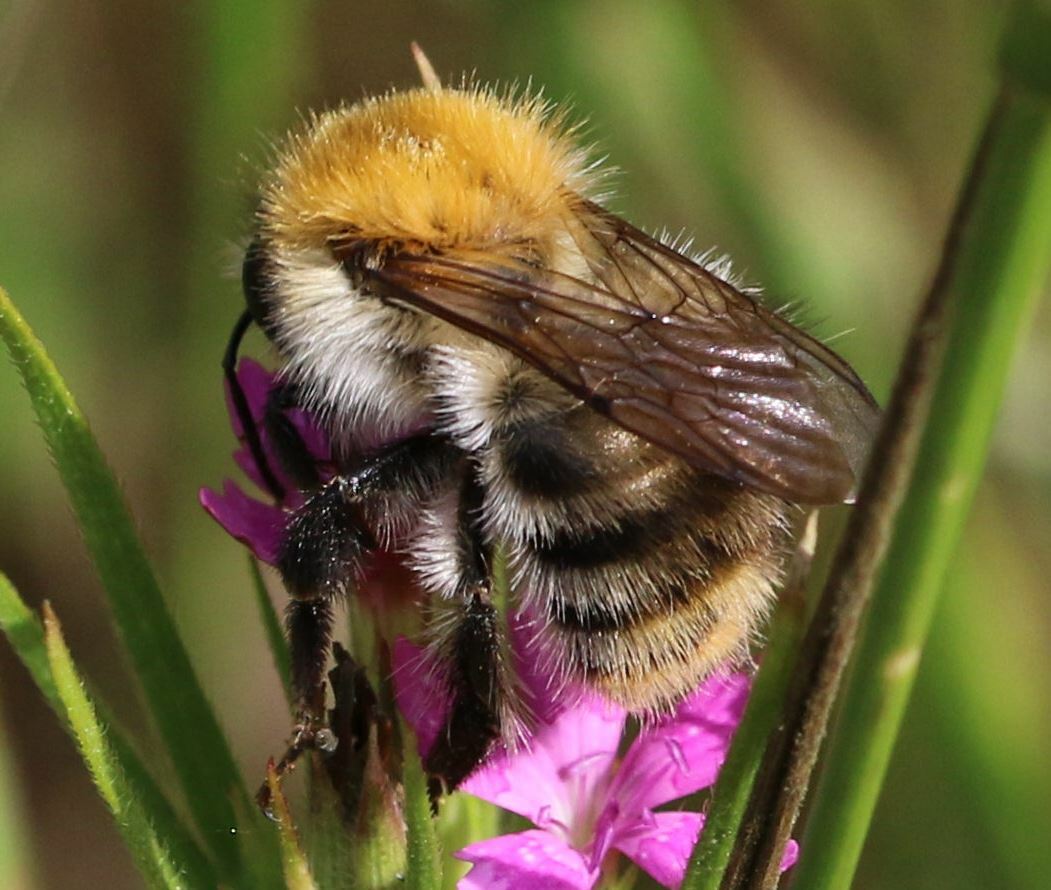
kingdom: Animalia
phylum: Arthropoda
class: Insecta
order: Hymenoptera
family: Apidae
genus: Bombus
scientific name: Bombus pascuorum
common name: Common carder bee
